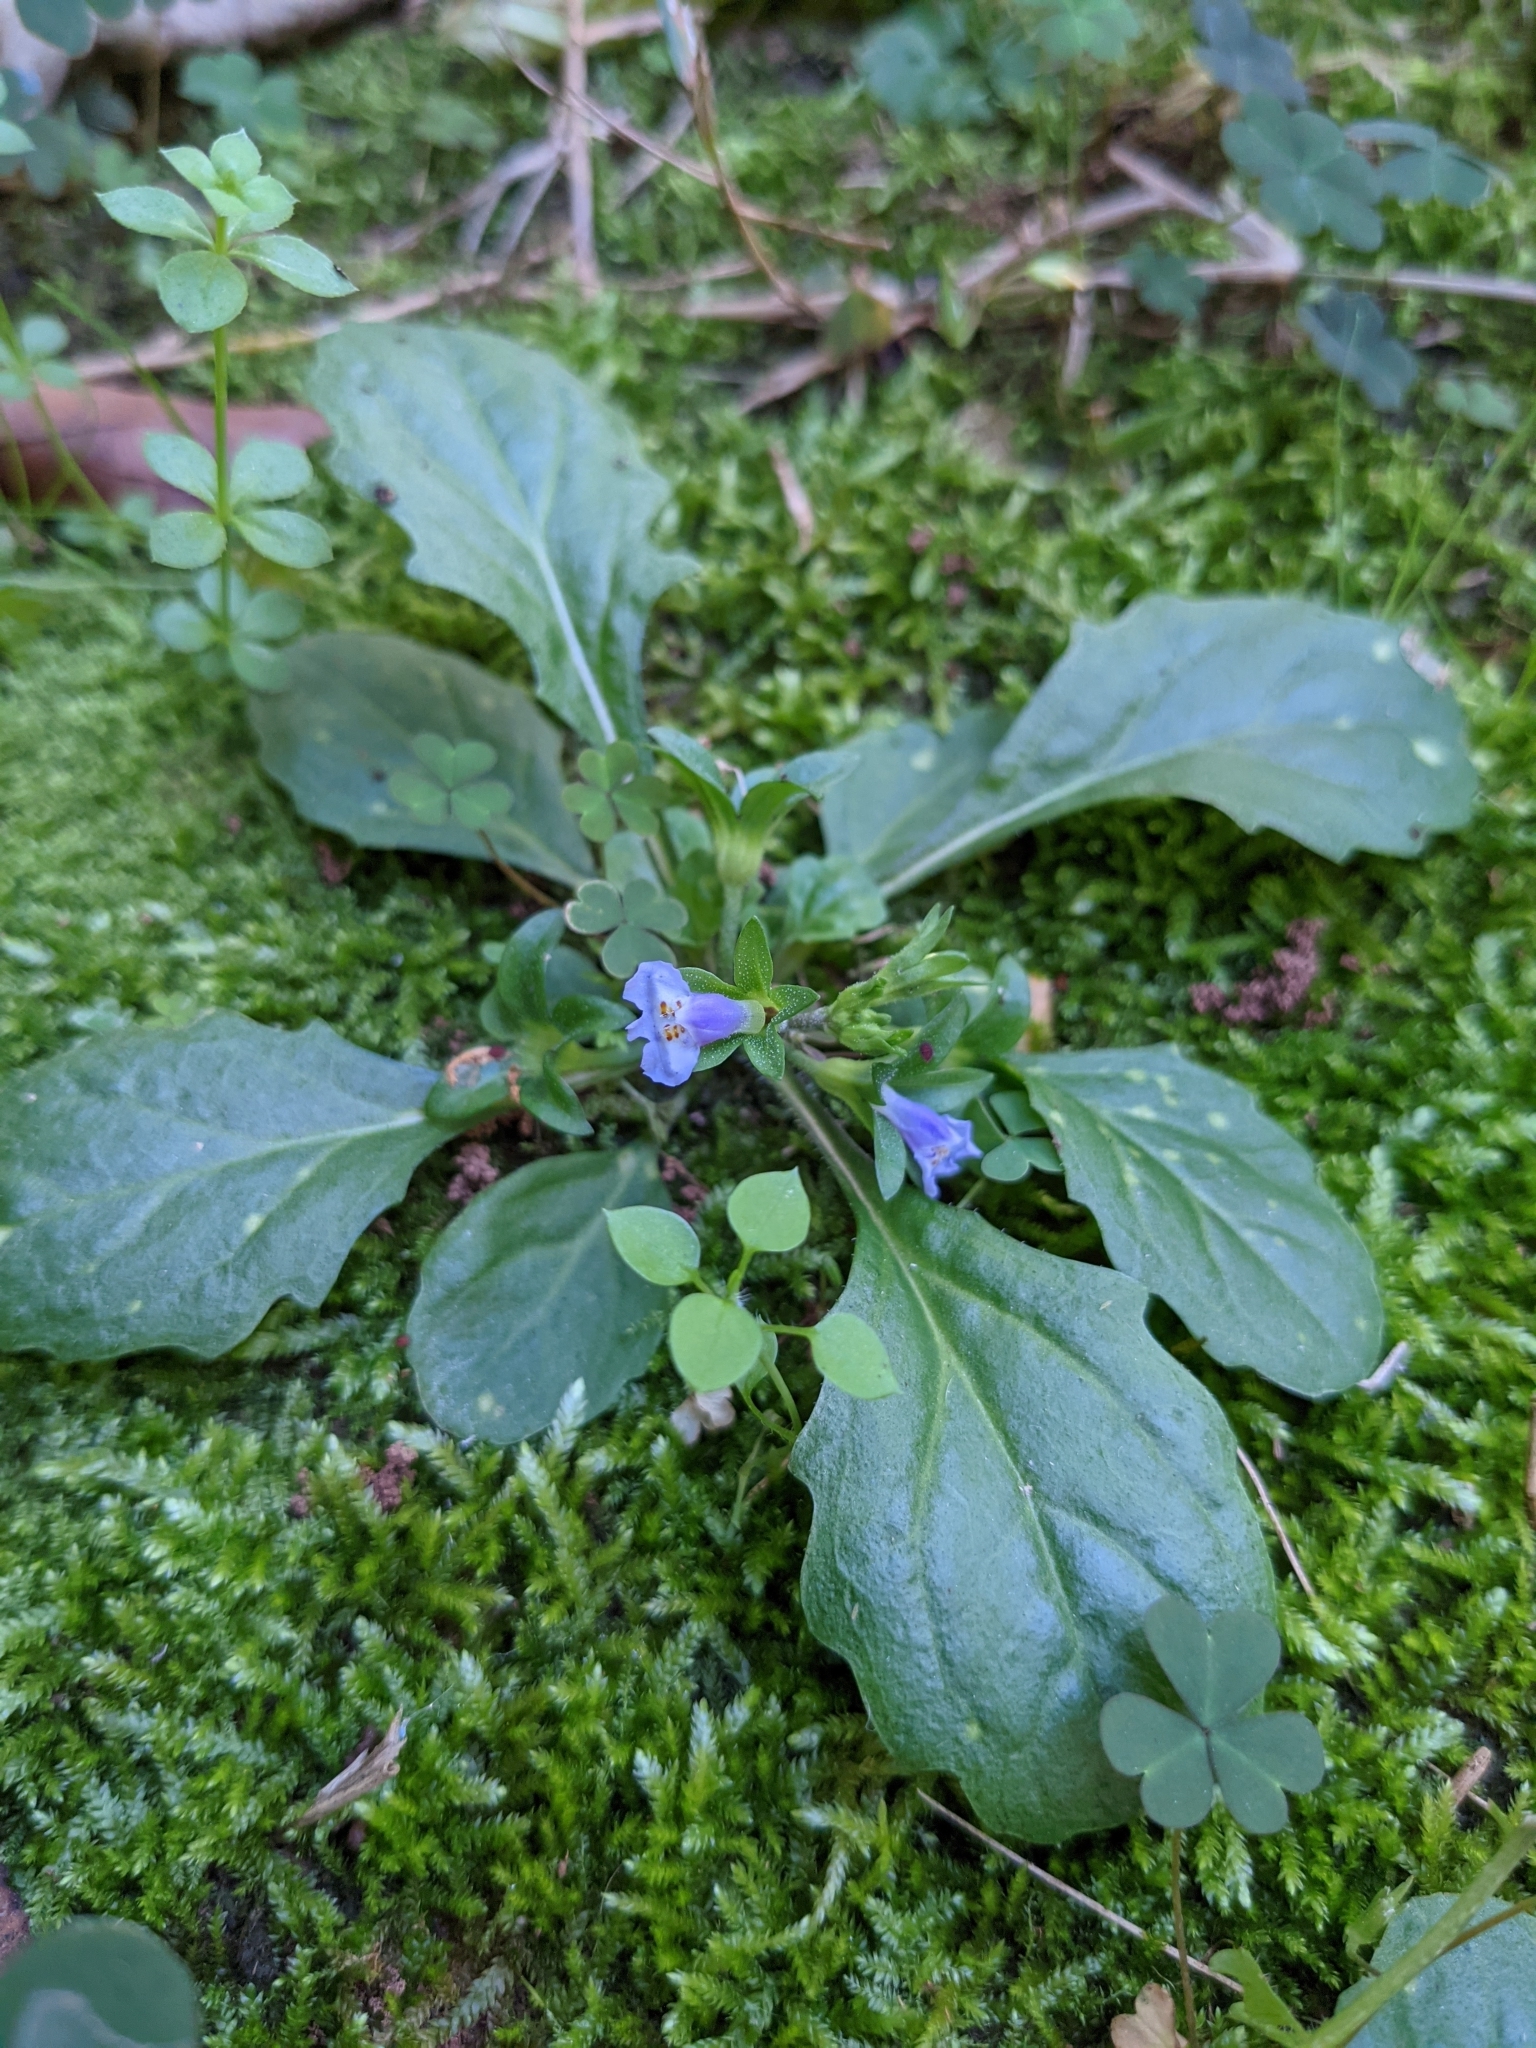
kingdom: Plantae
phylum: Tracheophyta
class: Magnoliopsida
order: Lamiales
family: Mazaceae
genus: Mazus
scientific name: Mazus pumilus
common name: Japanese mazus
